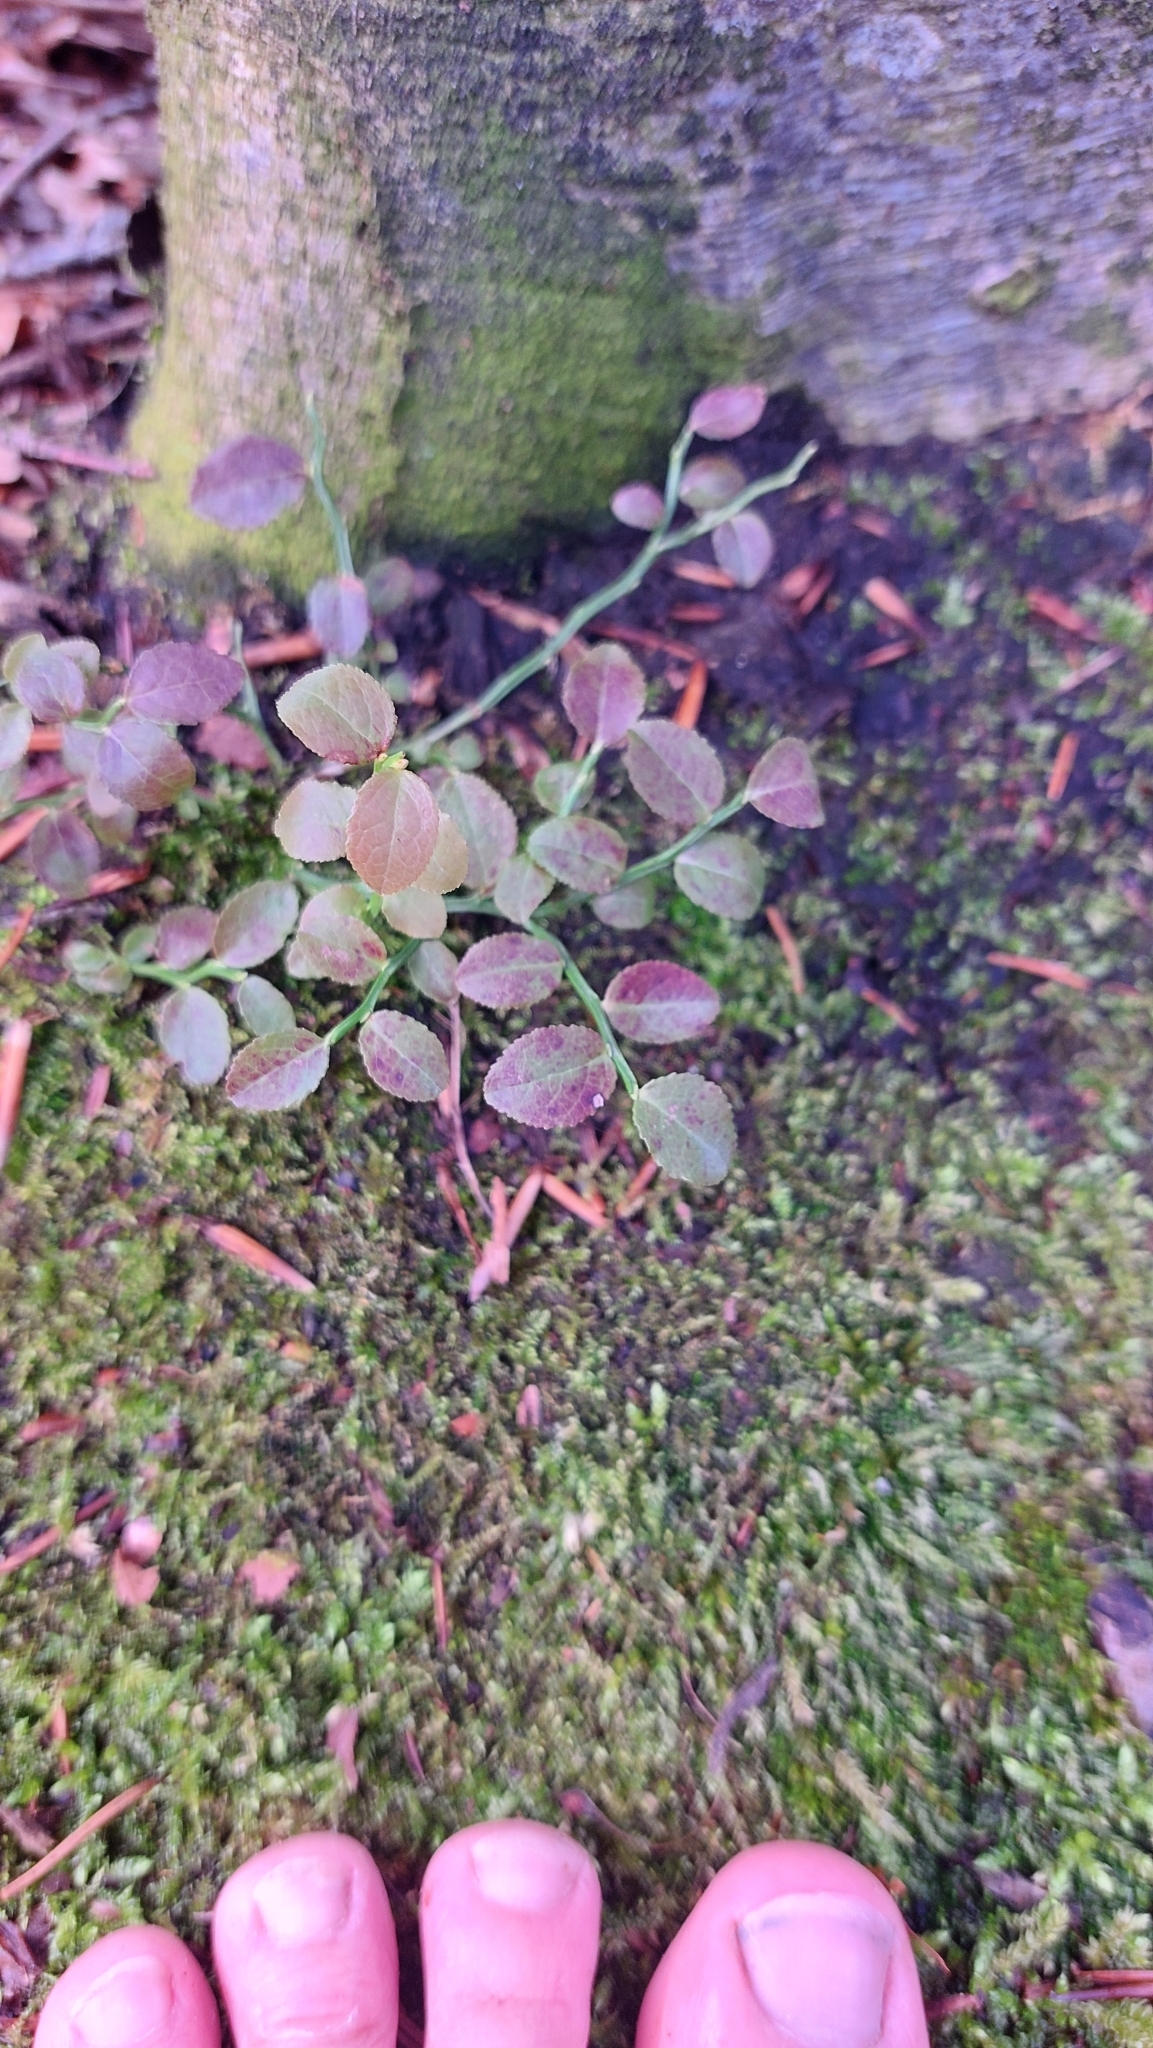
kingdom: Plantae
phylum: Tracheophyta
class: Magnoliopsida
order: Ericales
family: Ericaceae
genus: Vaccinium
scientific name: Vaccinium myrtillus
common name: Bilberry
